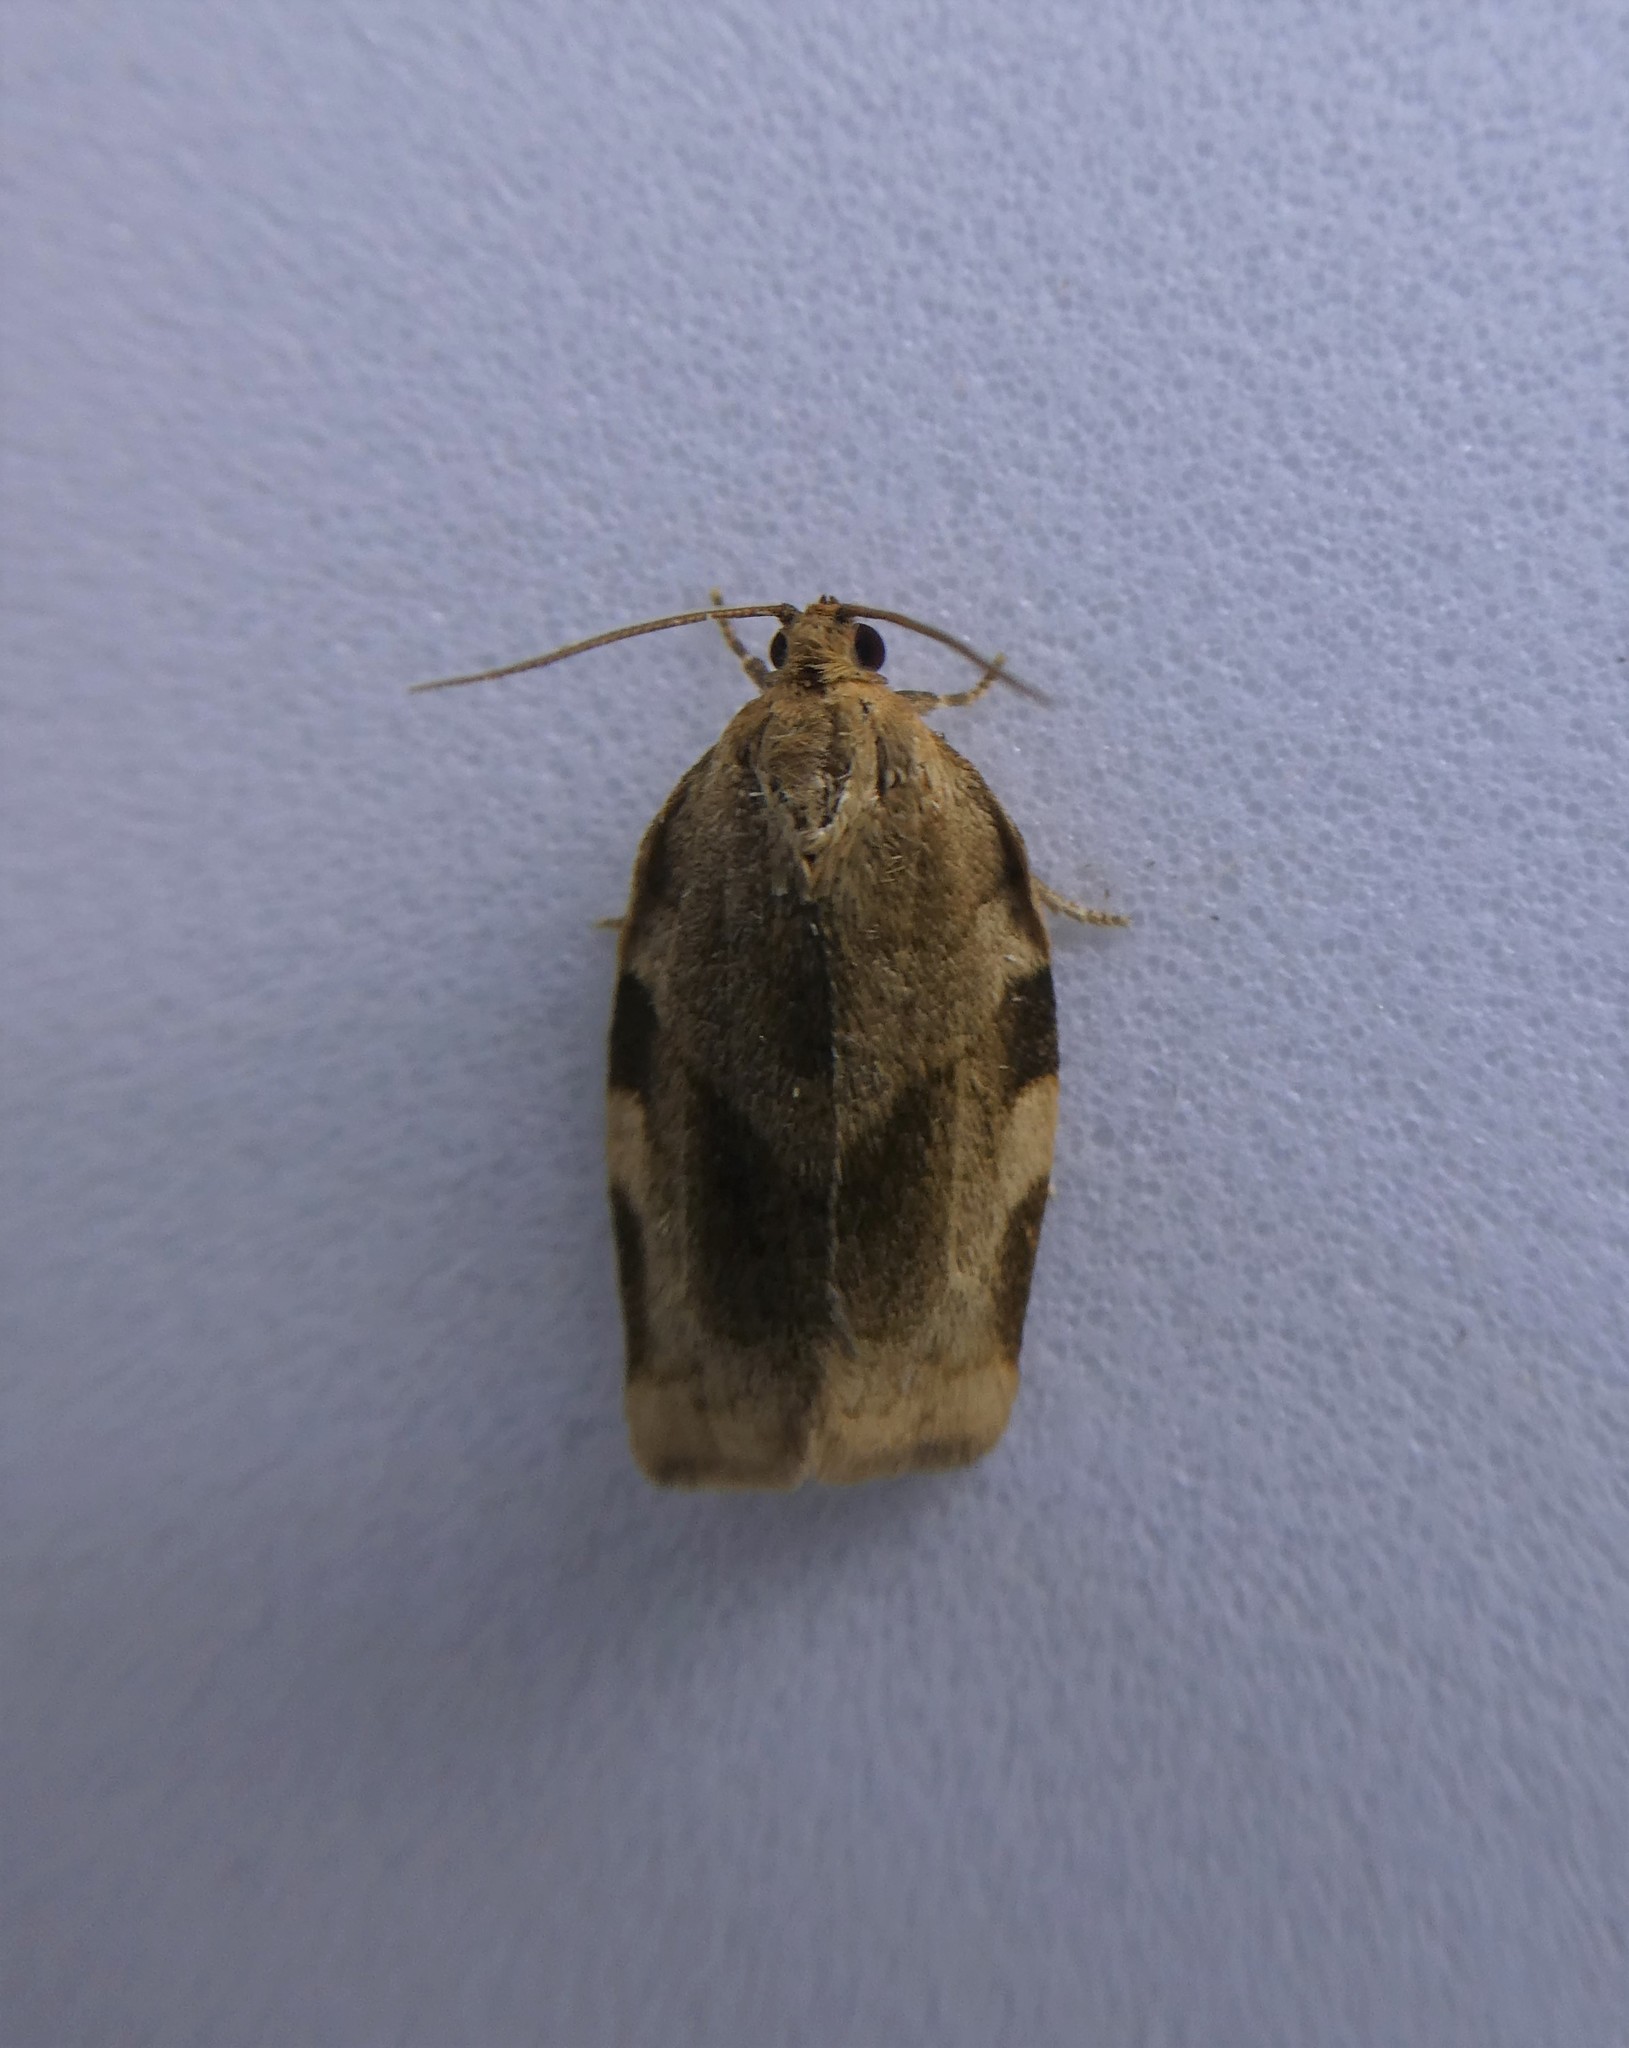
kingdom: Animalia
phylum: Arthropoda
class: Insecta
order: Lepidoptera
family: Tortricidae
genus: Choristoneura
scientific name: Choristoneura fractivittana
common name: Broken-banded leafroller moth
